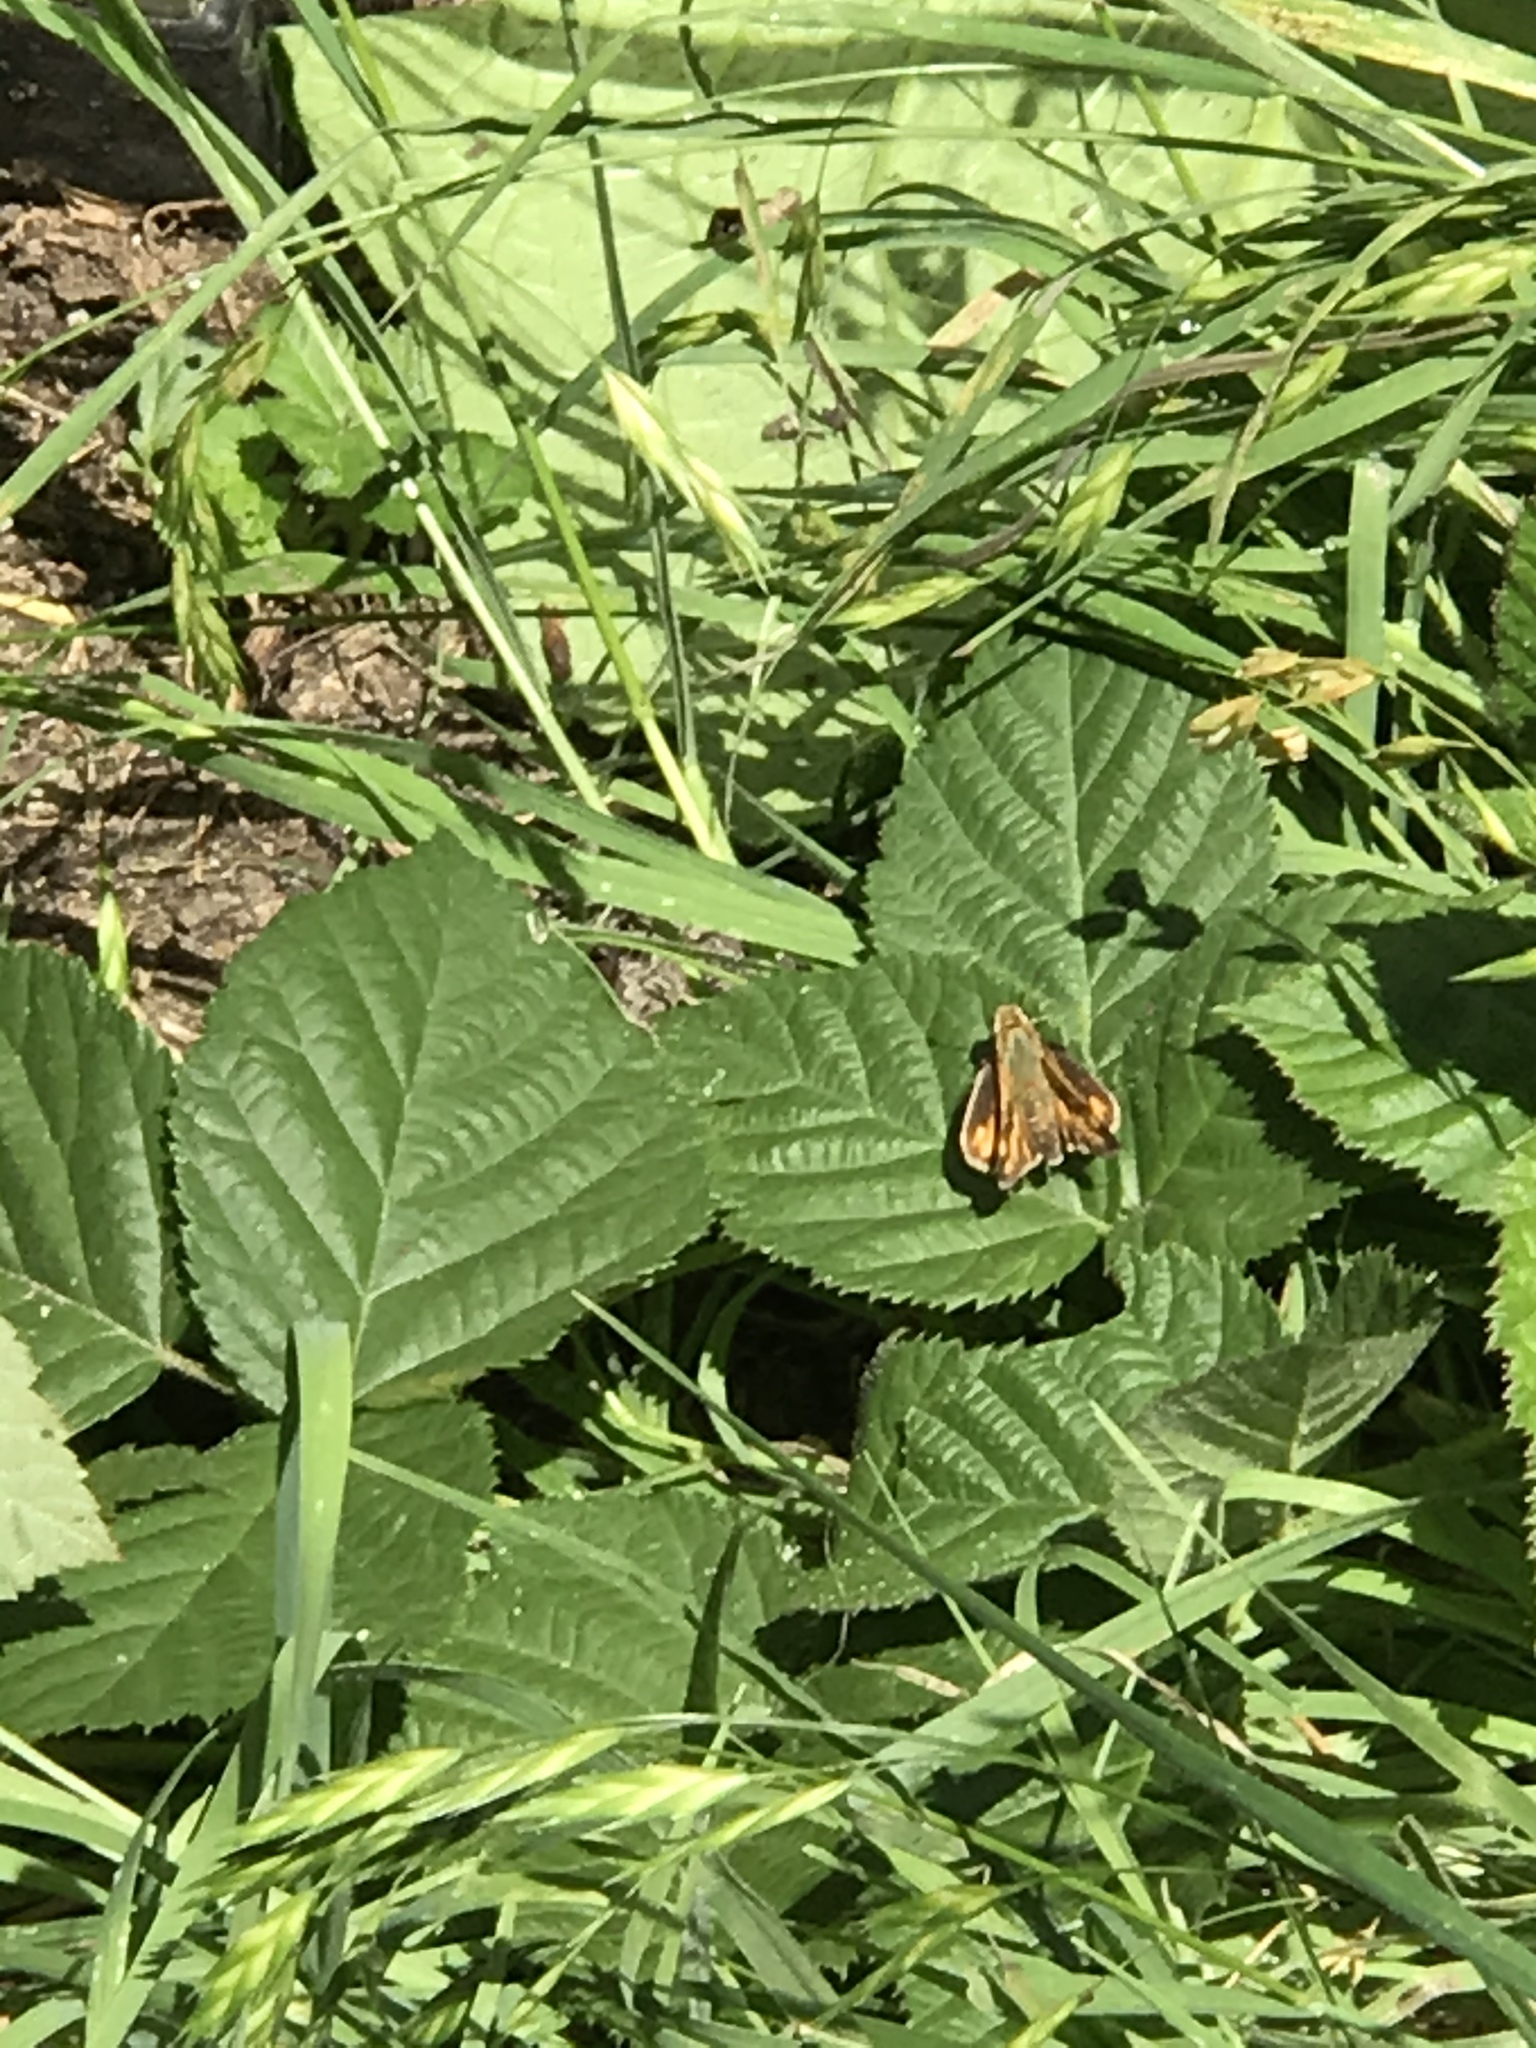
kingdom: Animalia
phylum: Arthropoda
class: Insecta
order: Lepidoptera
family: Hesperiidae
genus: Hylephila
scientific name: Hylephila phyleus
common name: Fiery skipper
